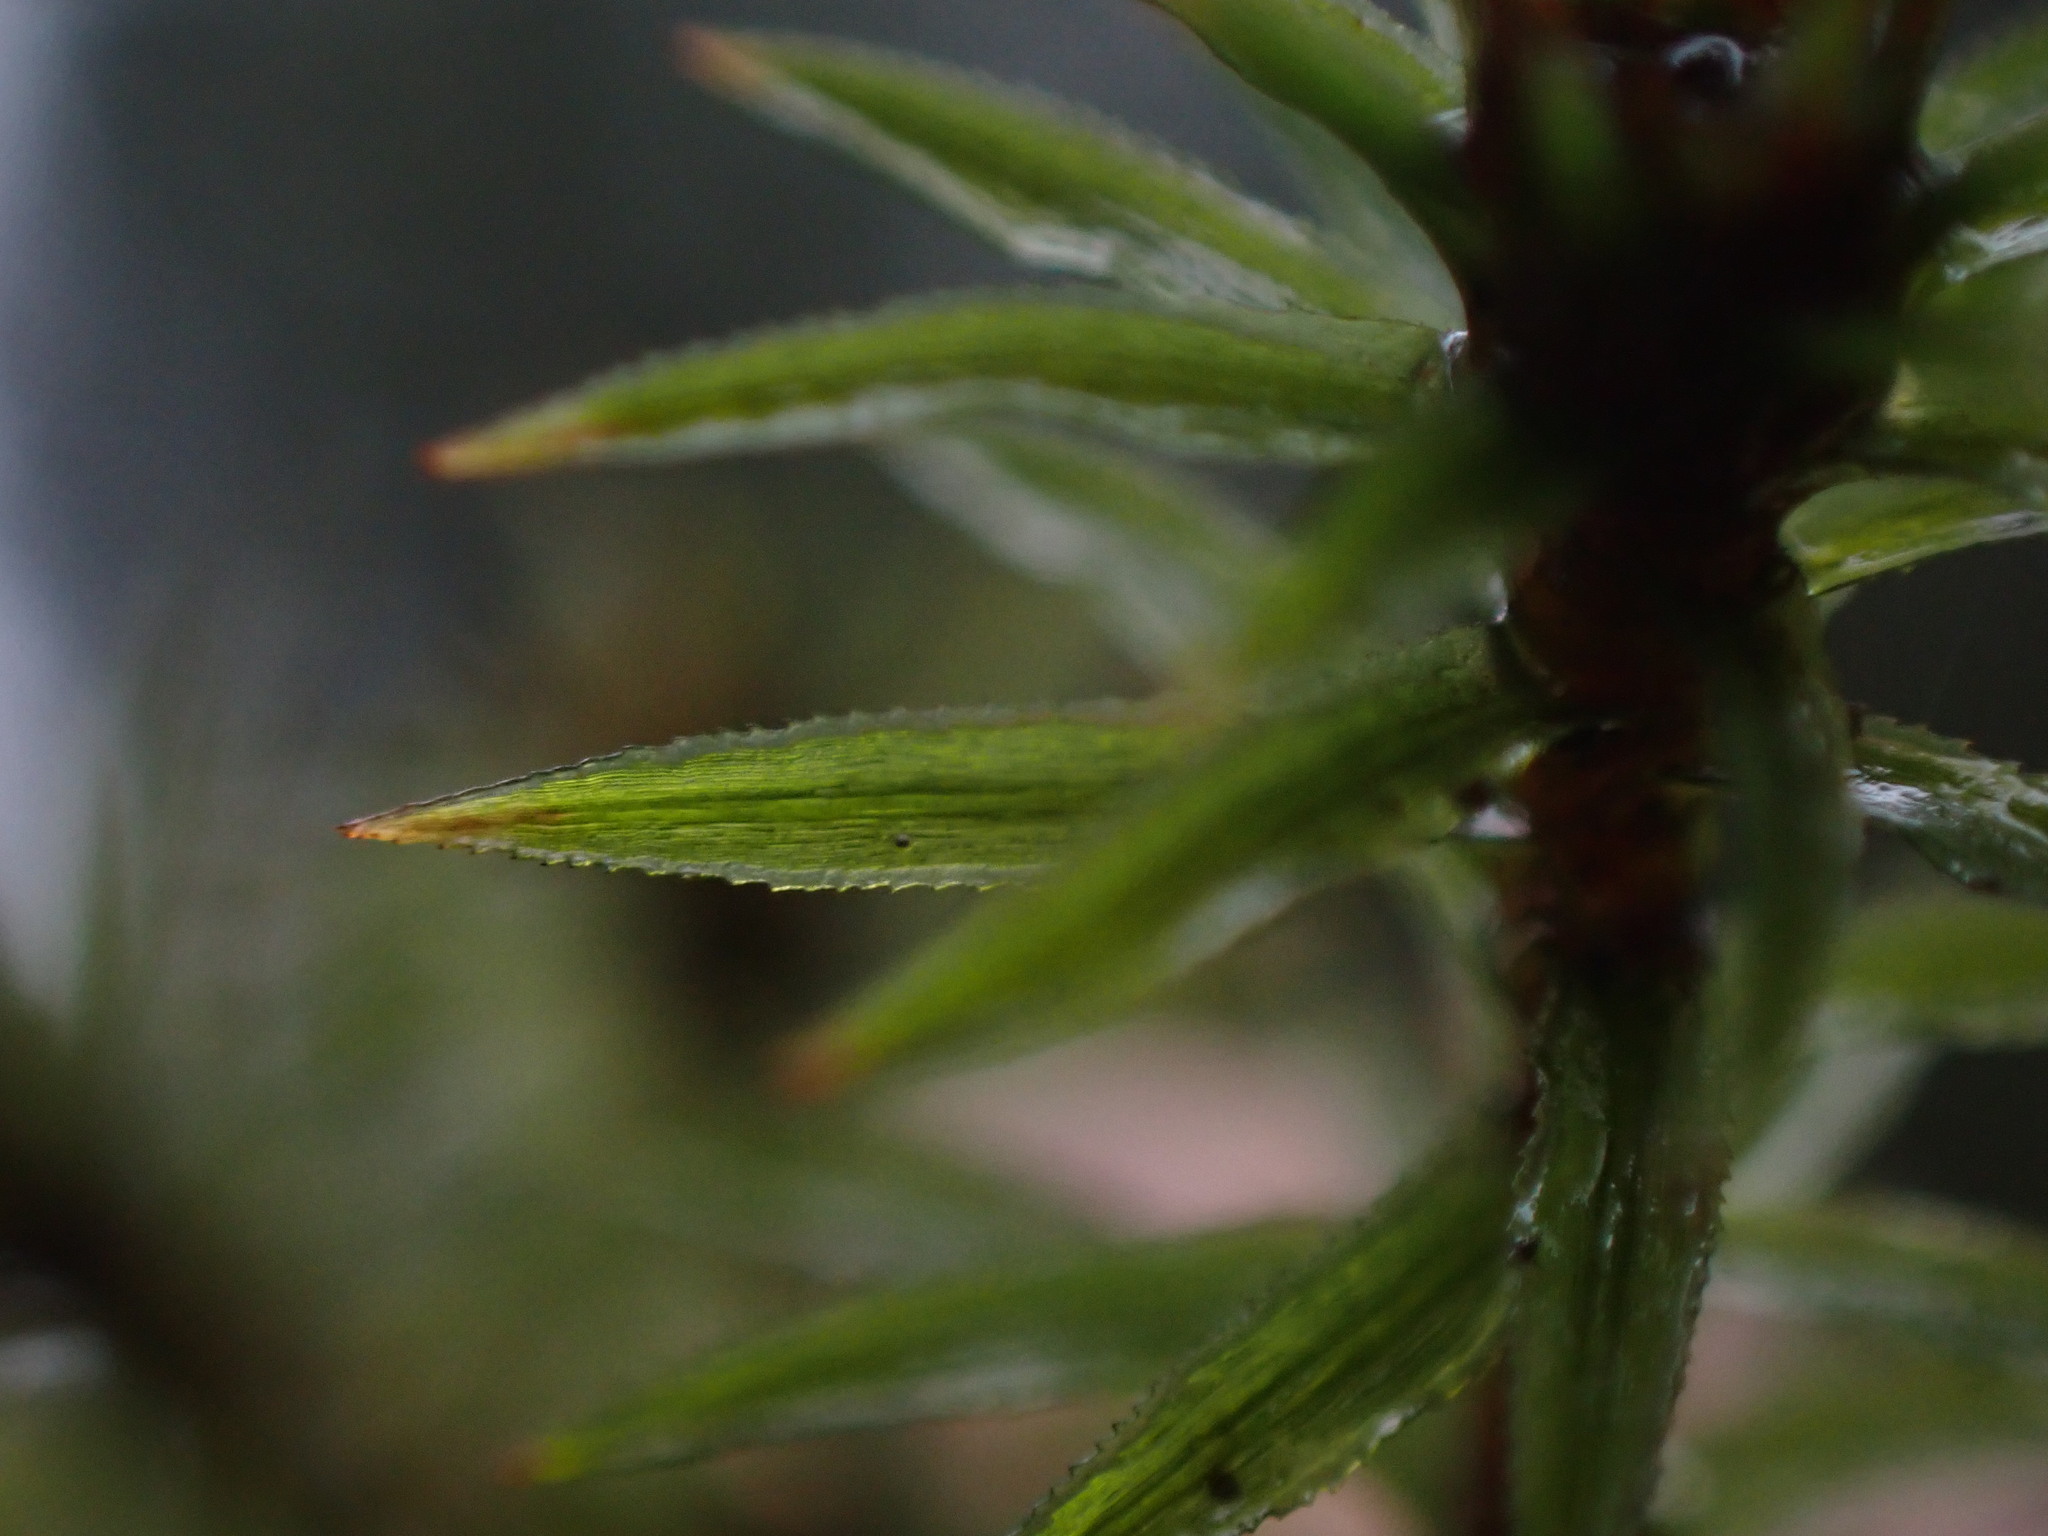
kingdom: Plantae
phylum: Bryophyta
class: Polytrichopsida
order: Polytrichales
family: Polytrichaceae
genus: Pogonatum
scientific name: Pogonatum contortum
